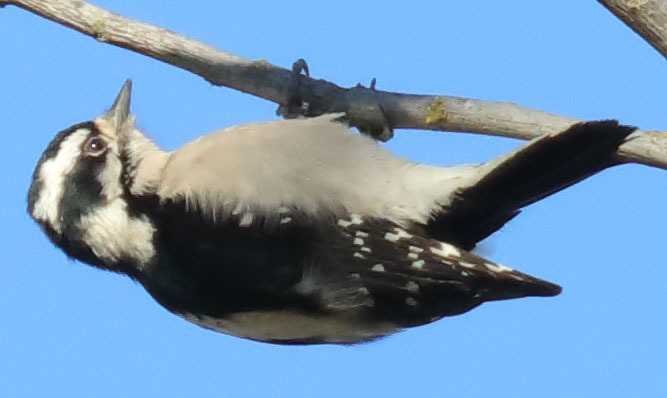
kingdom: Animalia
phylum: Chordata
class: Aves
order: Piciformes
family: Picidae
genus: Dryobates
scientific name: Dryobates pubescens
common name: Downy woodpecker
